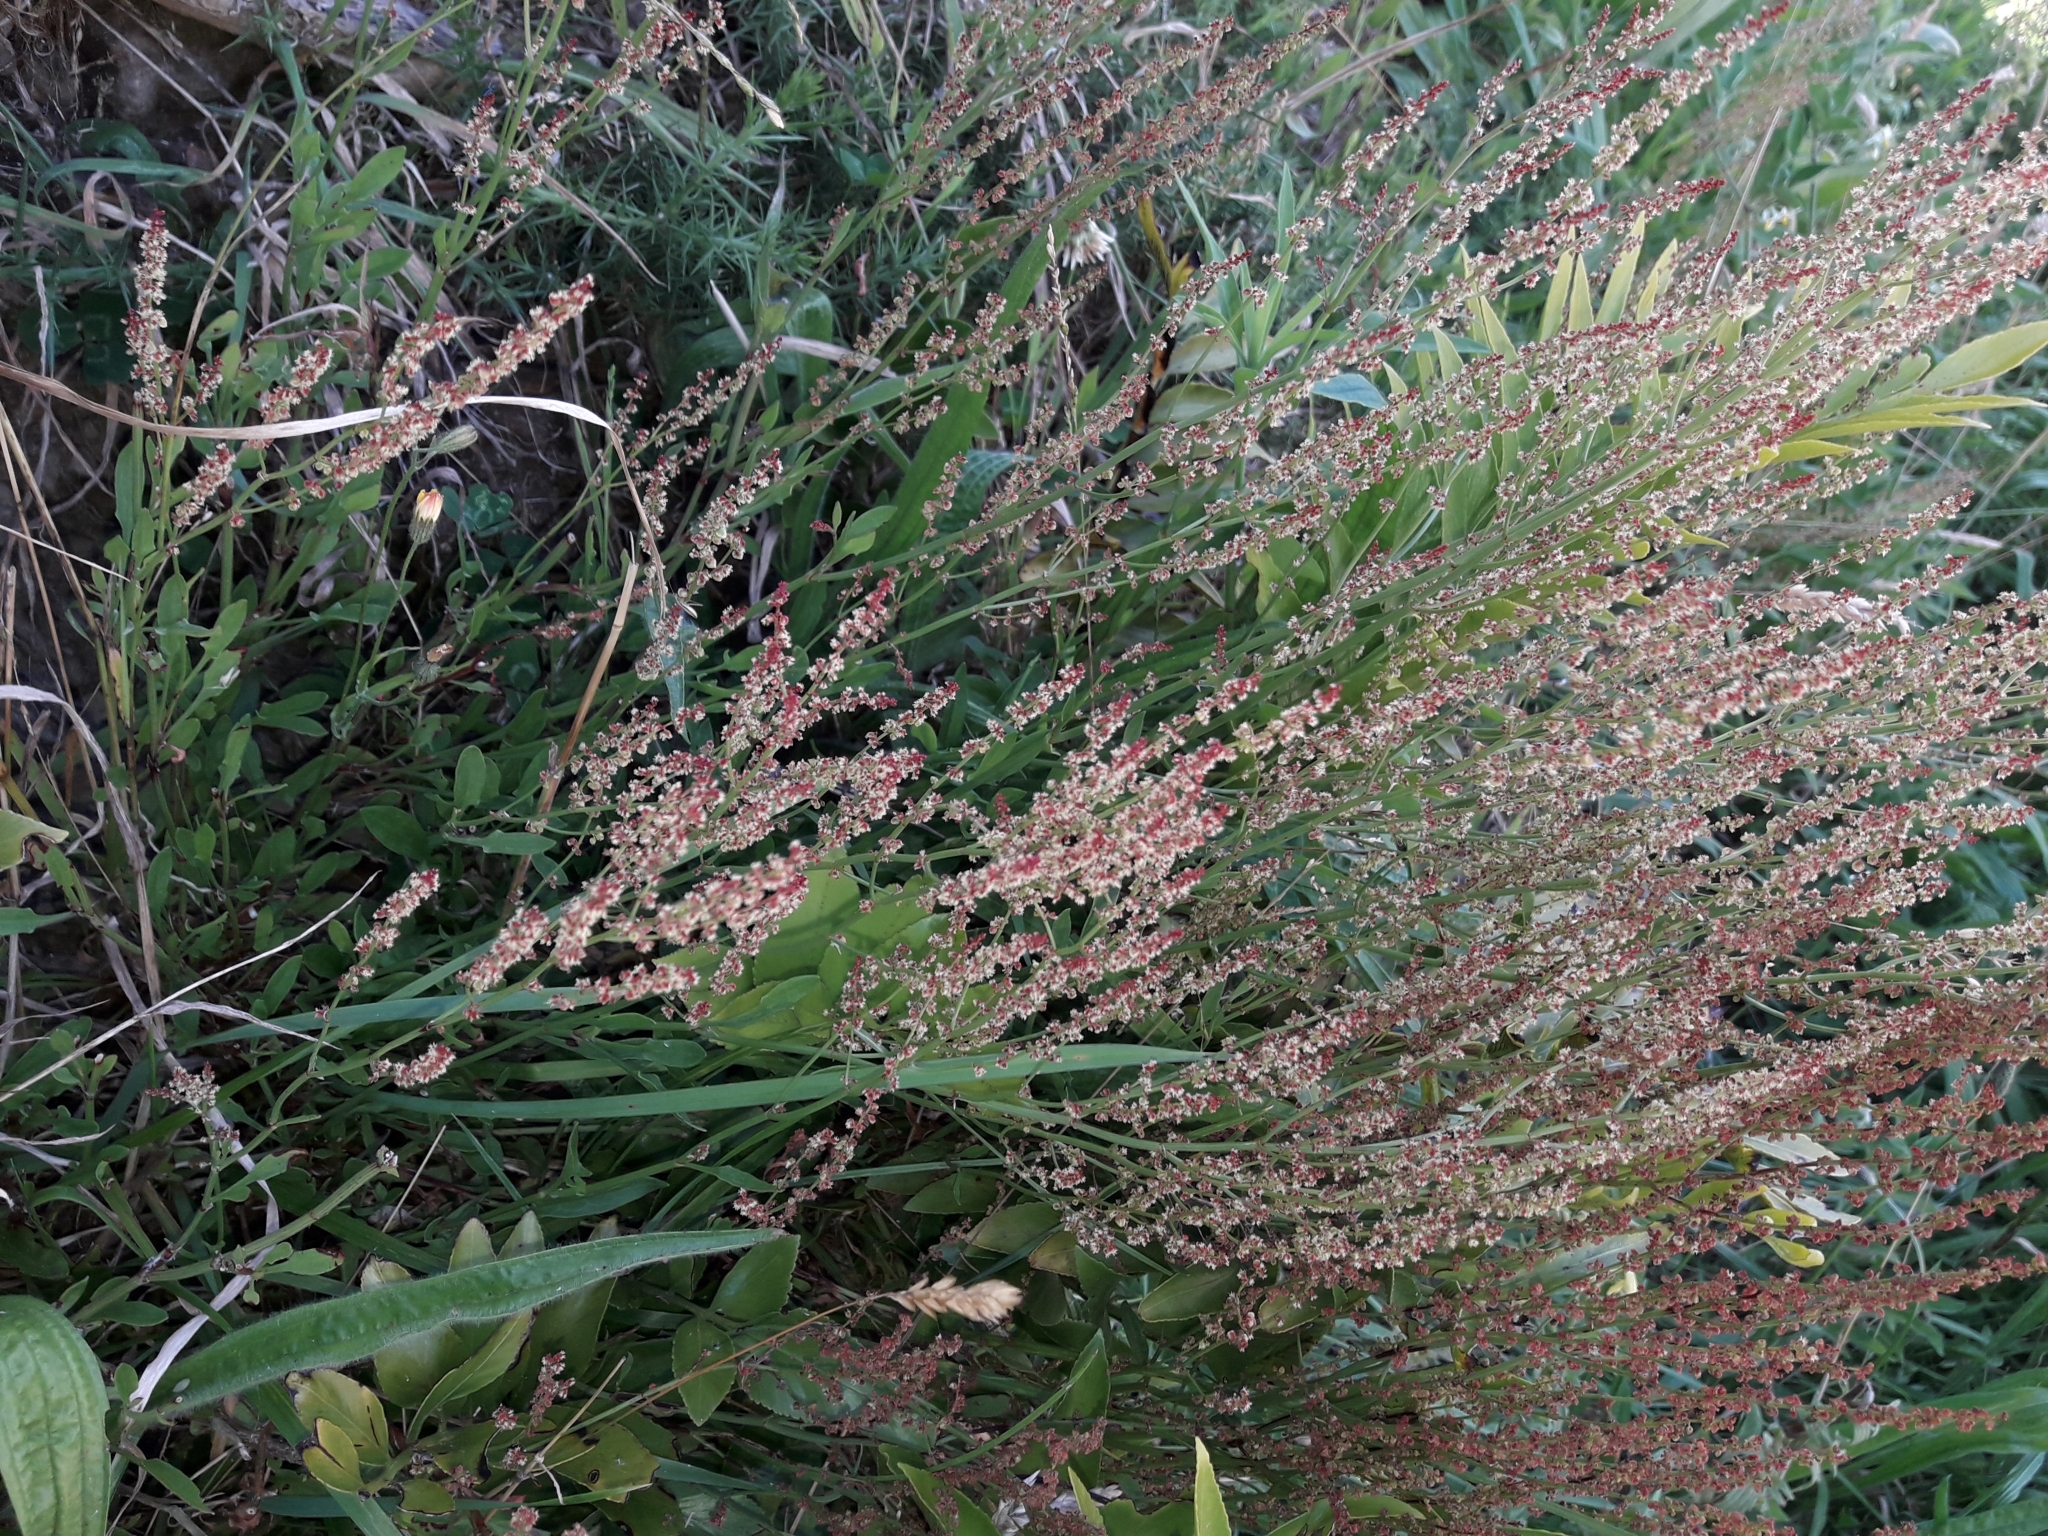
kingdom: Plantae
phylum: Tracheophyta
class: Magnoliopsida
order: Caryophyllales
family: Polygonaceae
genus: Rumex
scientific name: Rumex acetosella
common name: Common sheep sorrel
